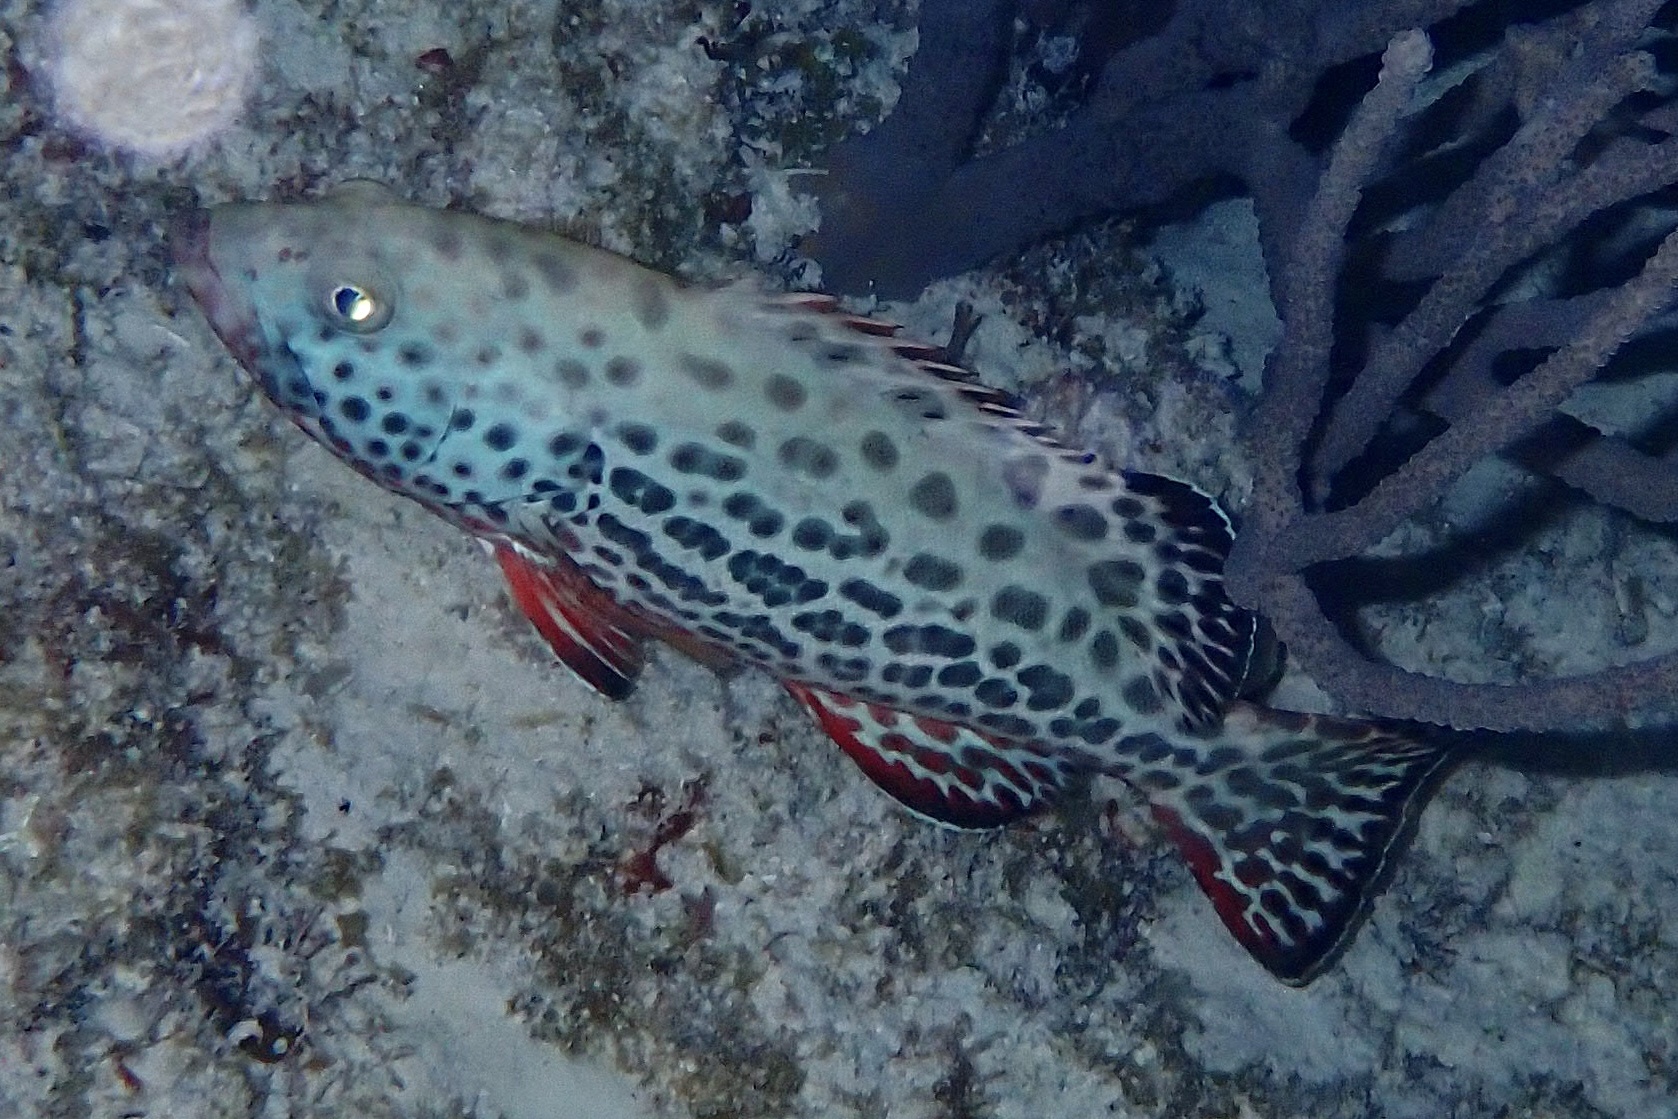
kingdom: Animalia
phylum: Chordata
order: Perciformes
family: Serranidae
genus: Mycteroperca
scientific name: Mycteroperca venenosa
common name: Yellowfin grouper
